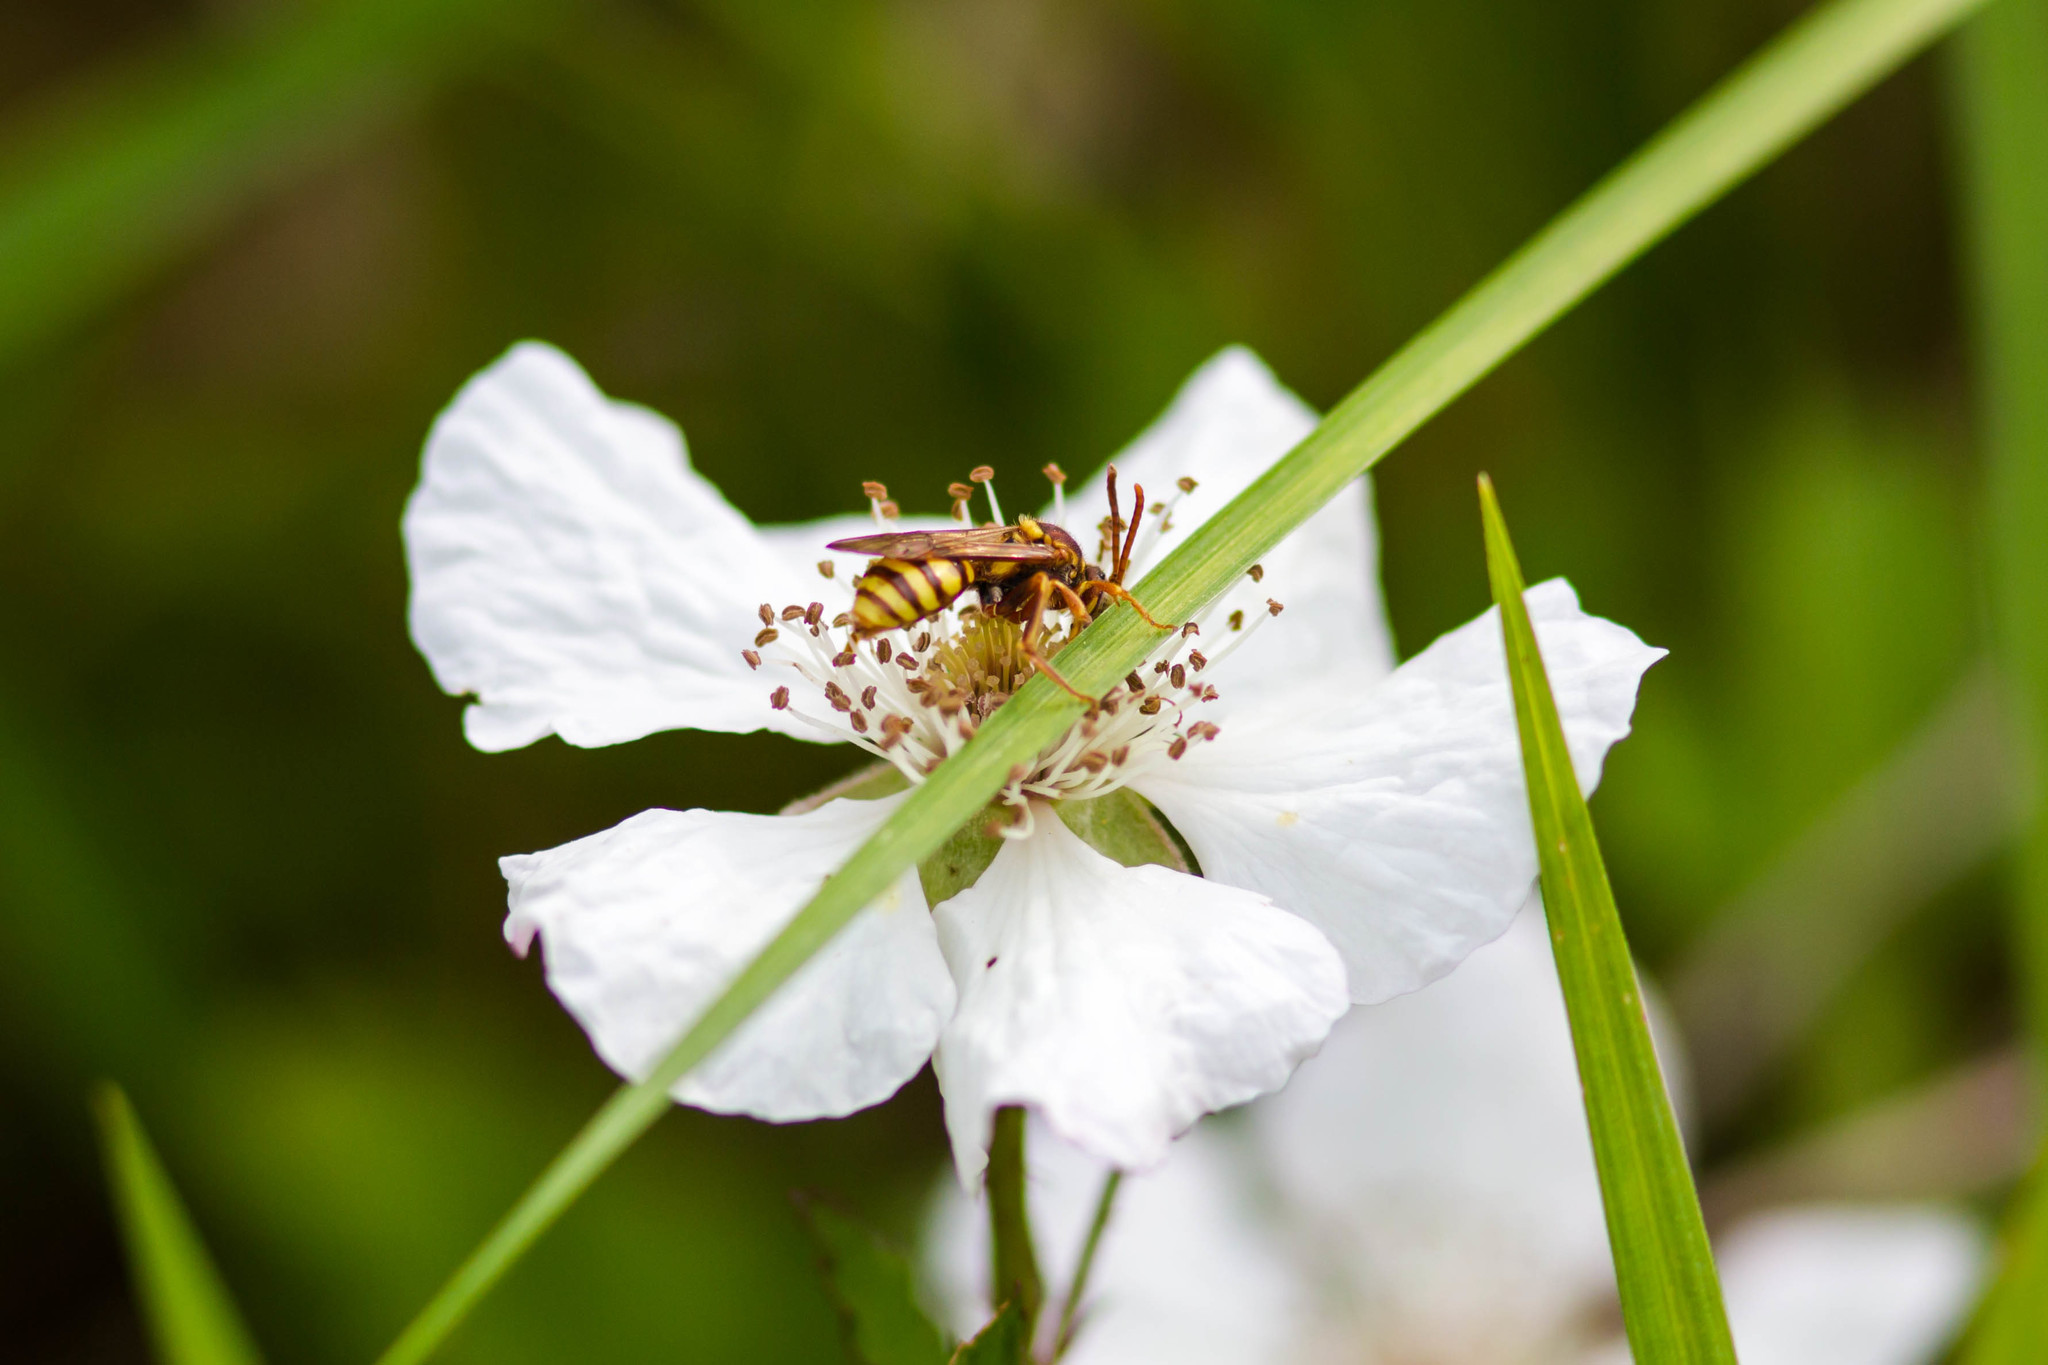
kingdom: Animalia
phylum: Arthropoda
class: Insecta
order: Hymenoptera
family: Apidae
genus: Nomada
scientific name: Nomada imbricata
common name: Imbricate cuckoo nomad bee
